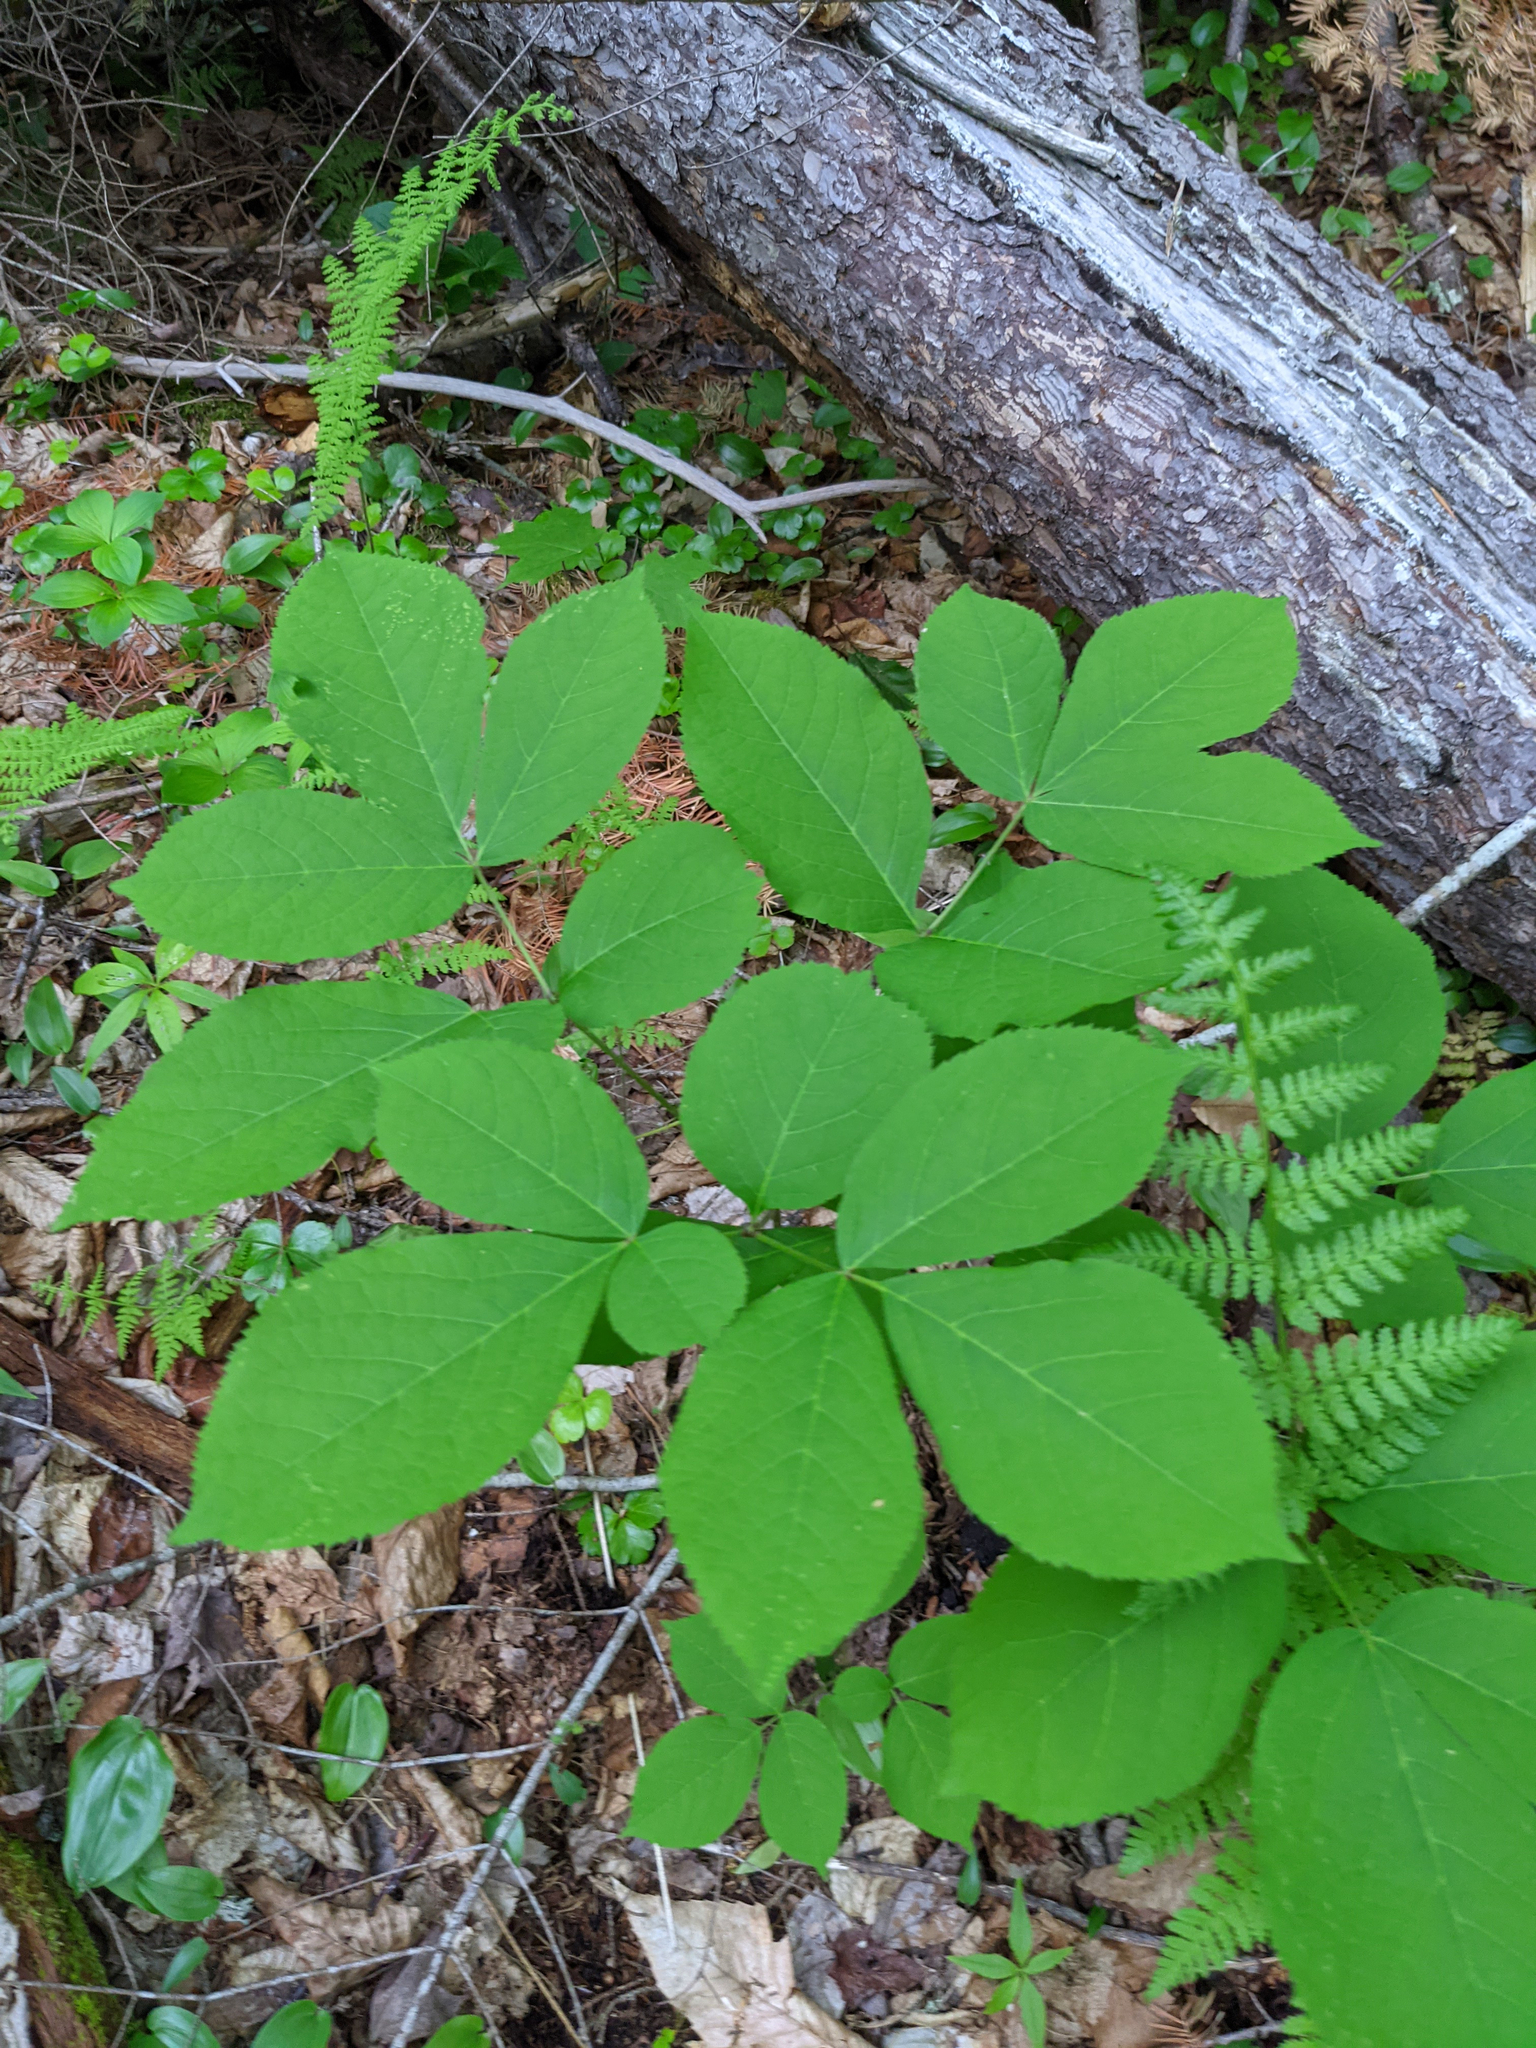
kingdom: Plantae
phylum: Tracheophyta
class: Magnoliopsida
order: Apiales
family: Araliaceae
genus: Aralia
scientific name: Aralia nudicaulis
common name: Wild sarsaparilla
